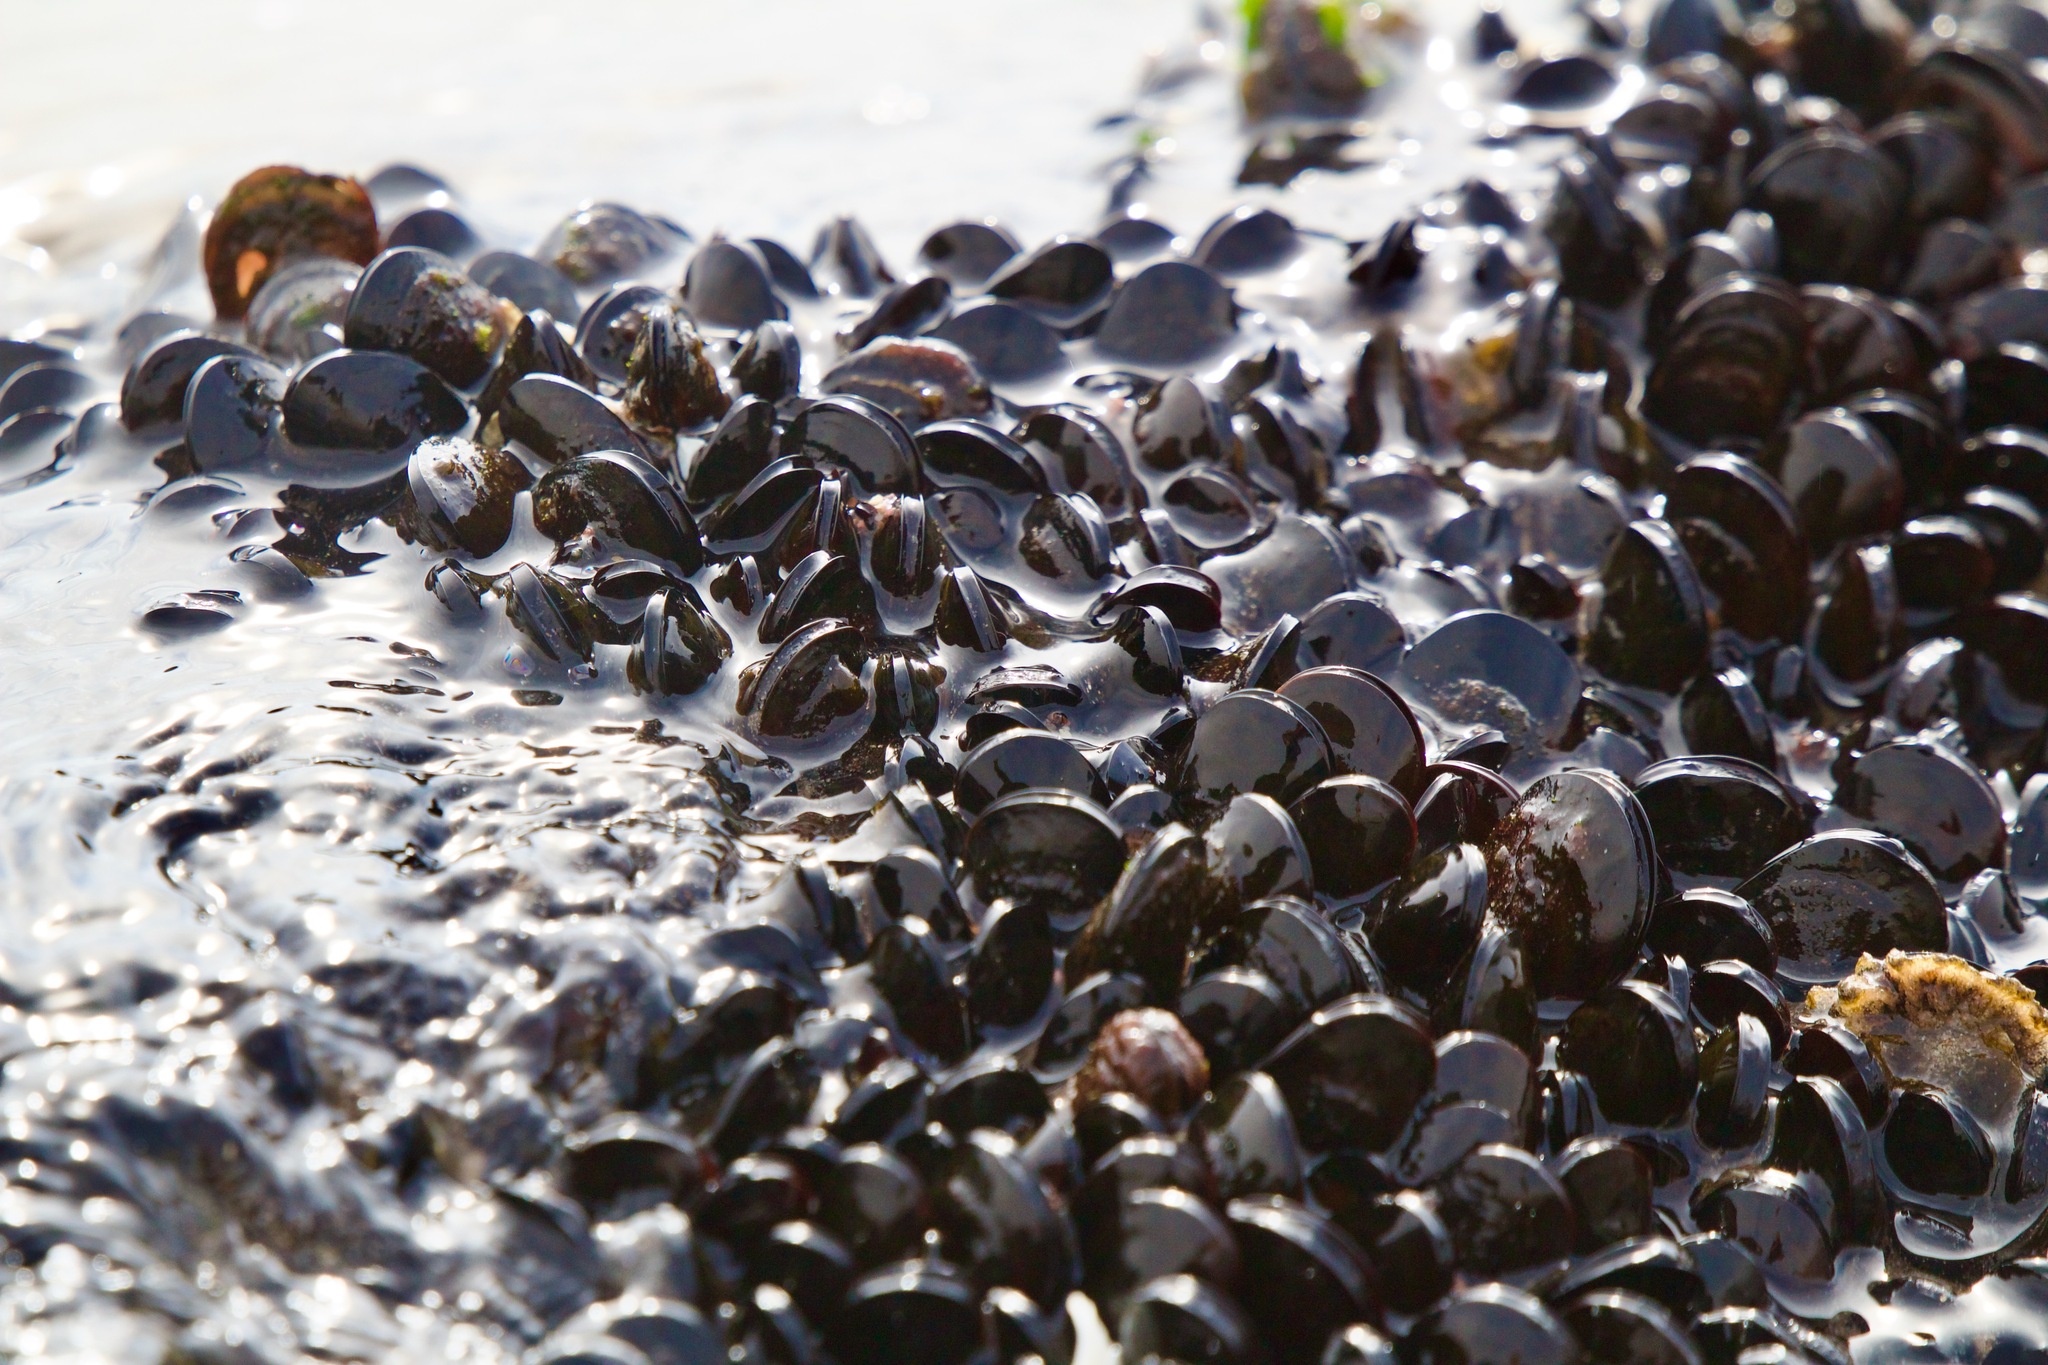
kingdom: Animalia
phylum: Mollusca
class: Bivalvia
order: Mytilida
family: Mytilidae
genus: Perumytilus
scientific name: Perumytilus purpuratus
